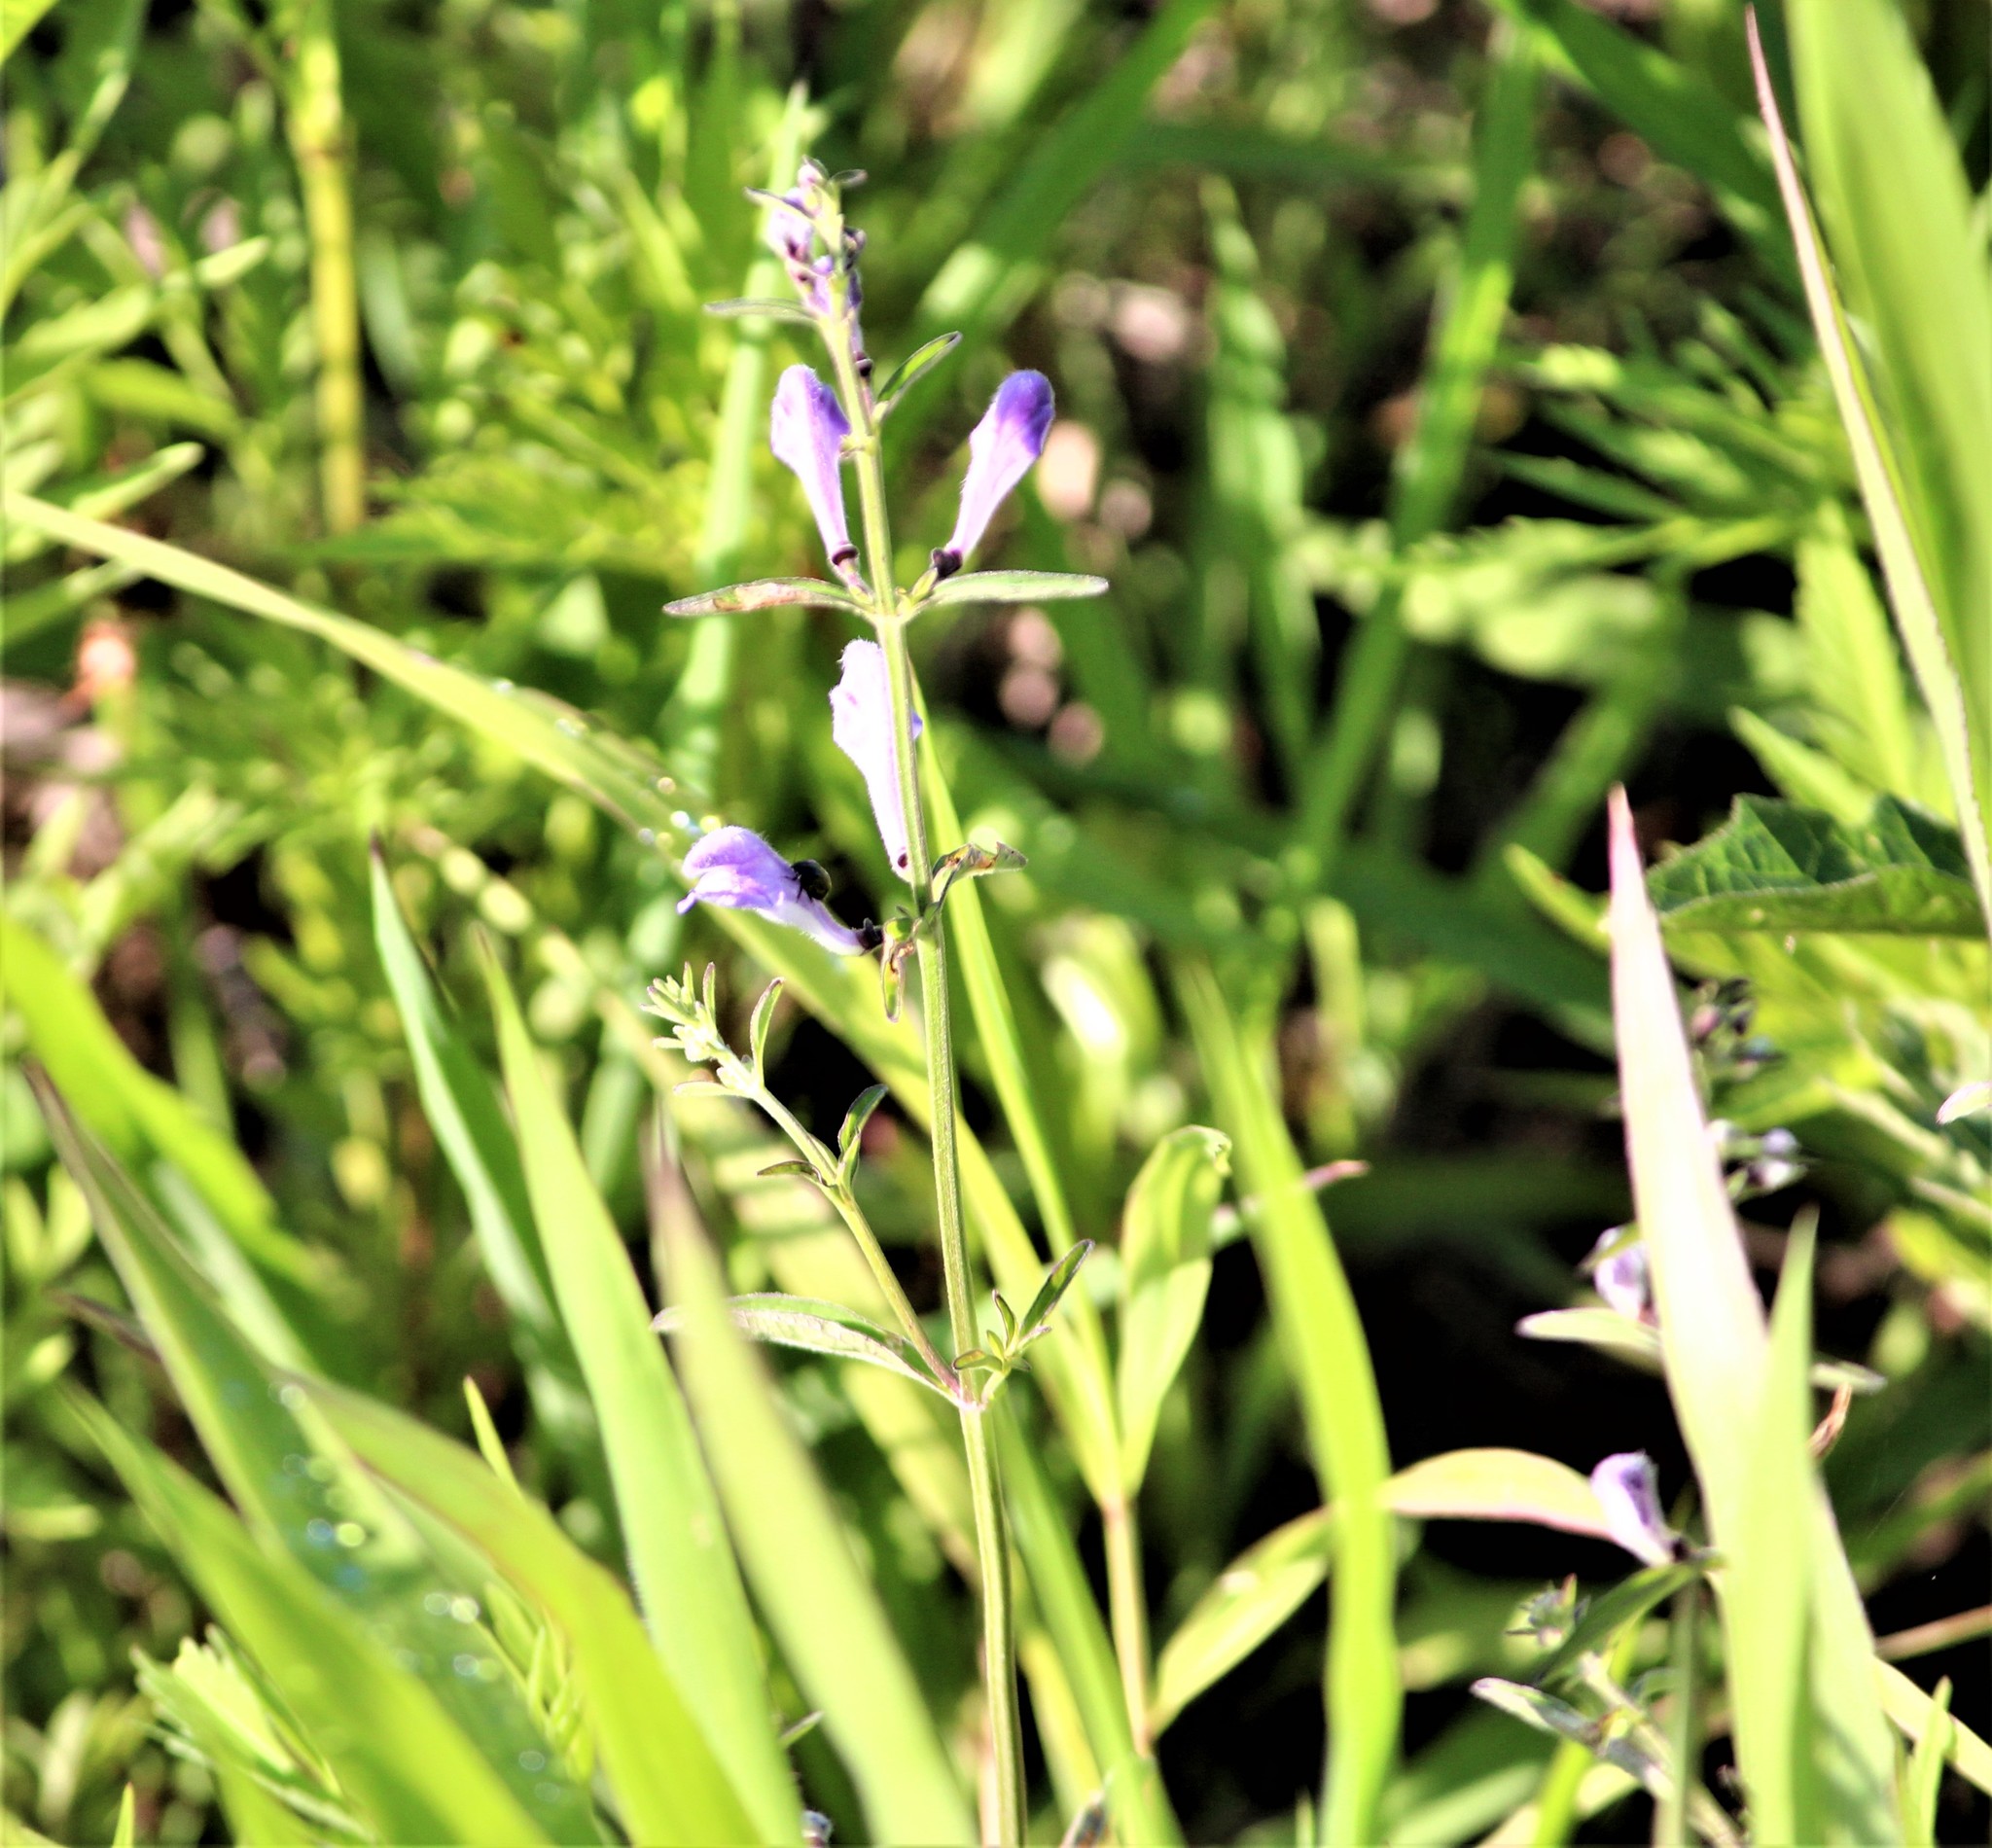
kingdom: Plantae
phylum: Tracheophyta
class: Magnoliopsida
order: Lamiales
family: Lamiaceae
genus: Scutellaria
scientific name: Scutellaria integrifolia
